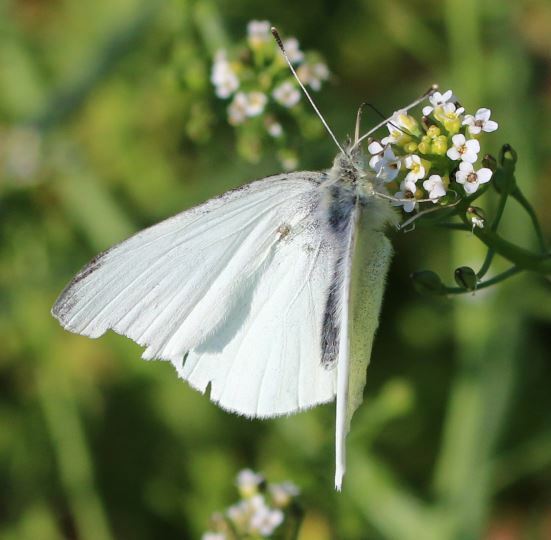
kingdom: Animalia
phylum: Arthropoda
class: Insecta
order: Lepidoptera
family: Pieridae
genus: Pieris
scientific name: Pieris rapae
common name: Small white
